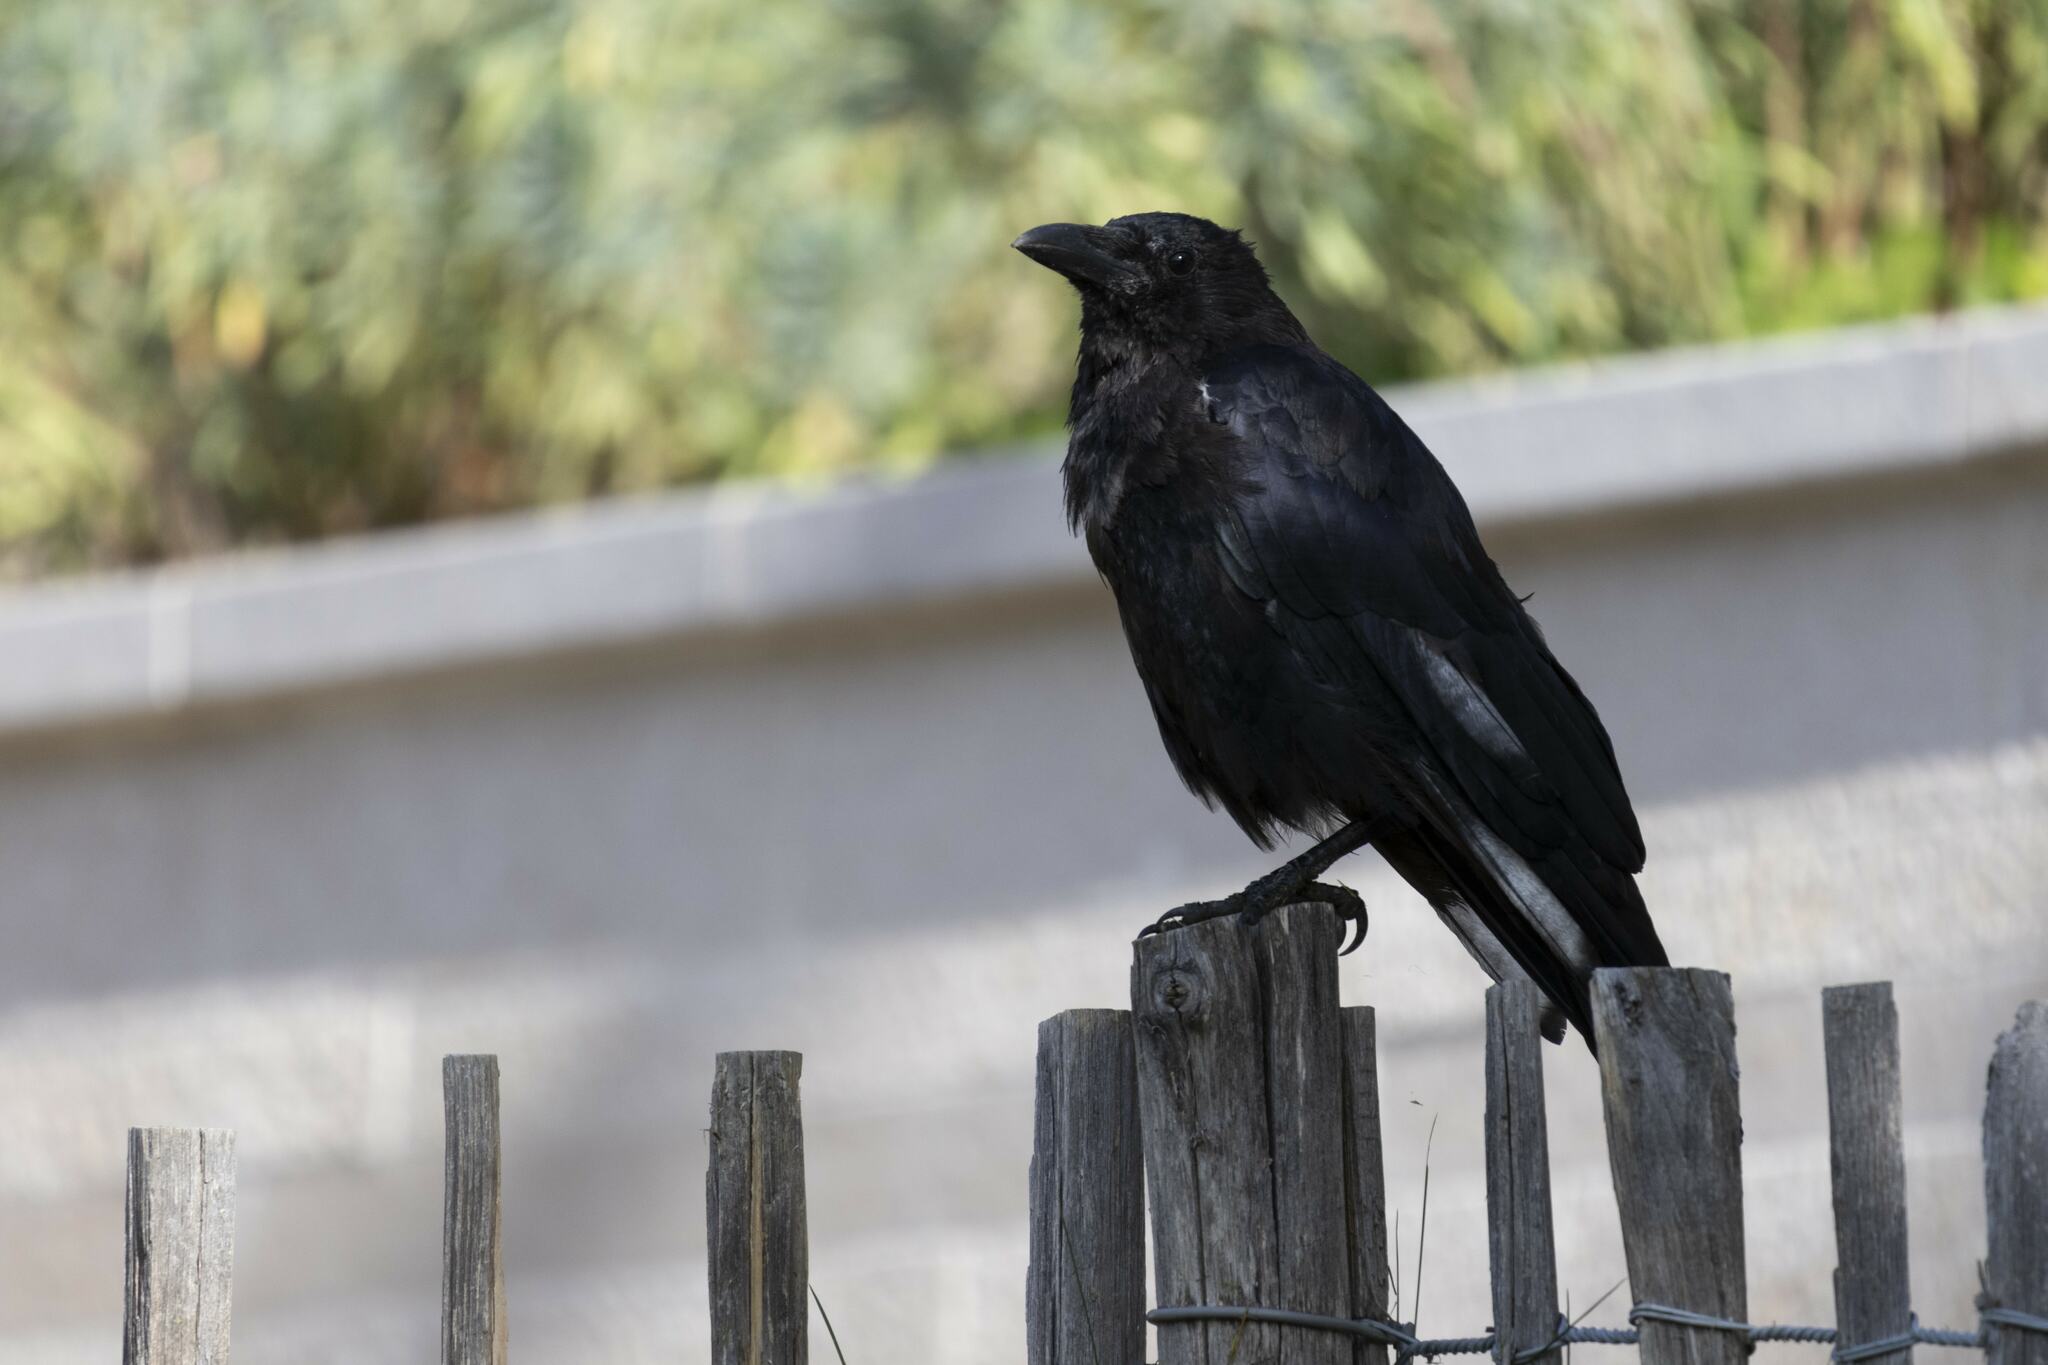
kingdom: Animalia
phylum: Chordata
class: Aves
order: Passeriformes
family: Corvidae
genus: Corvus
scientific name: Corvus corone
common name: Carrion crow
